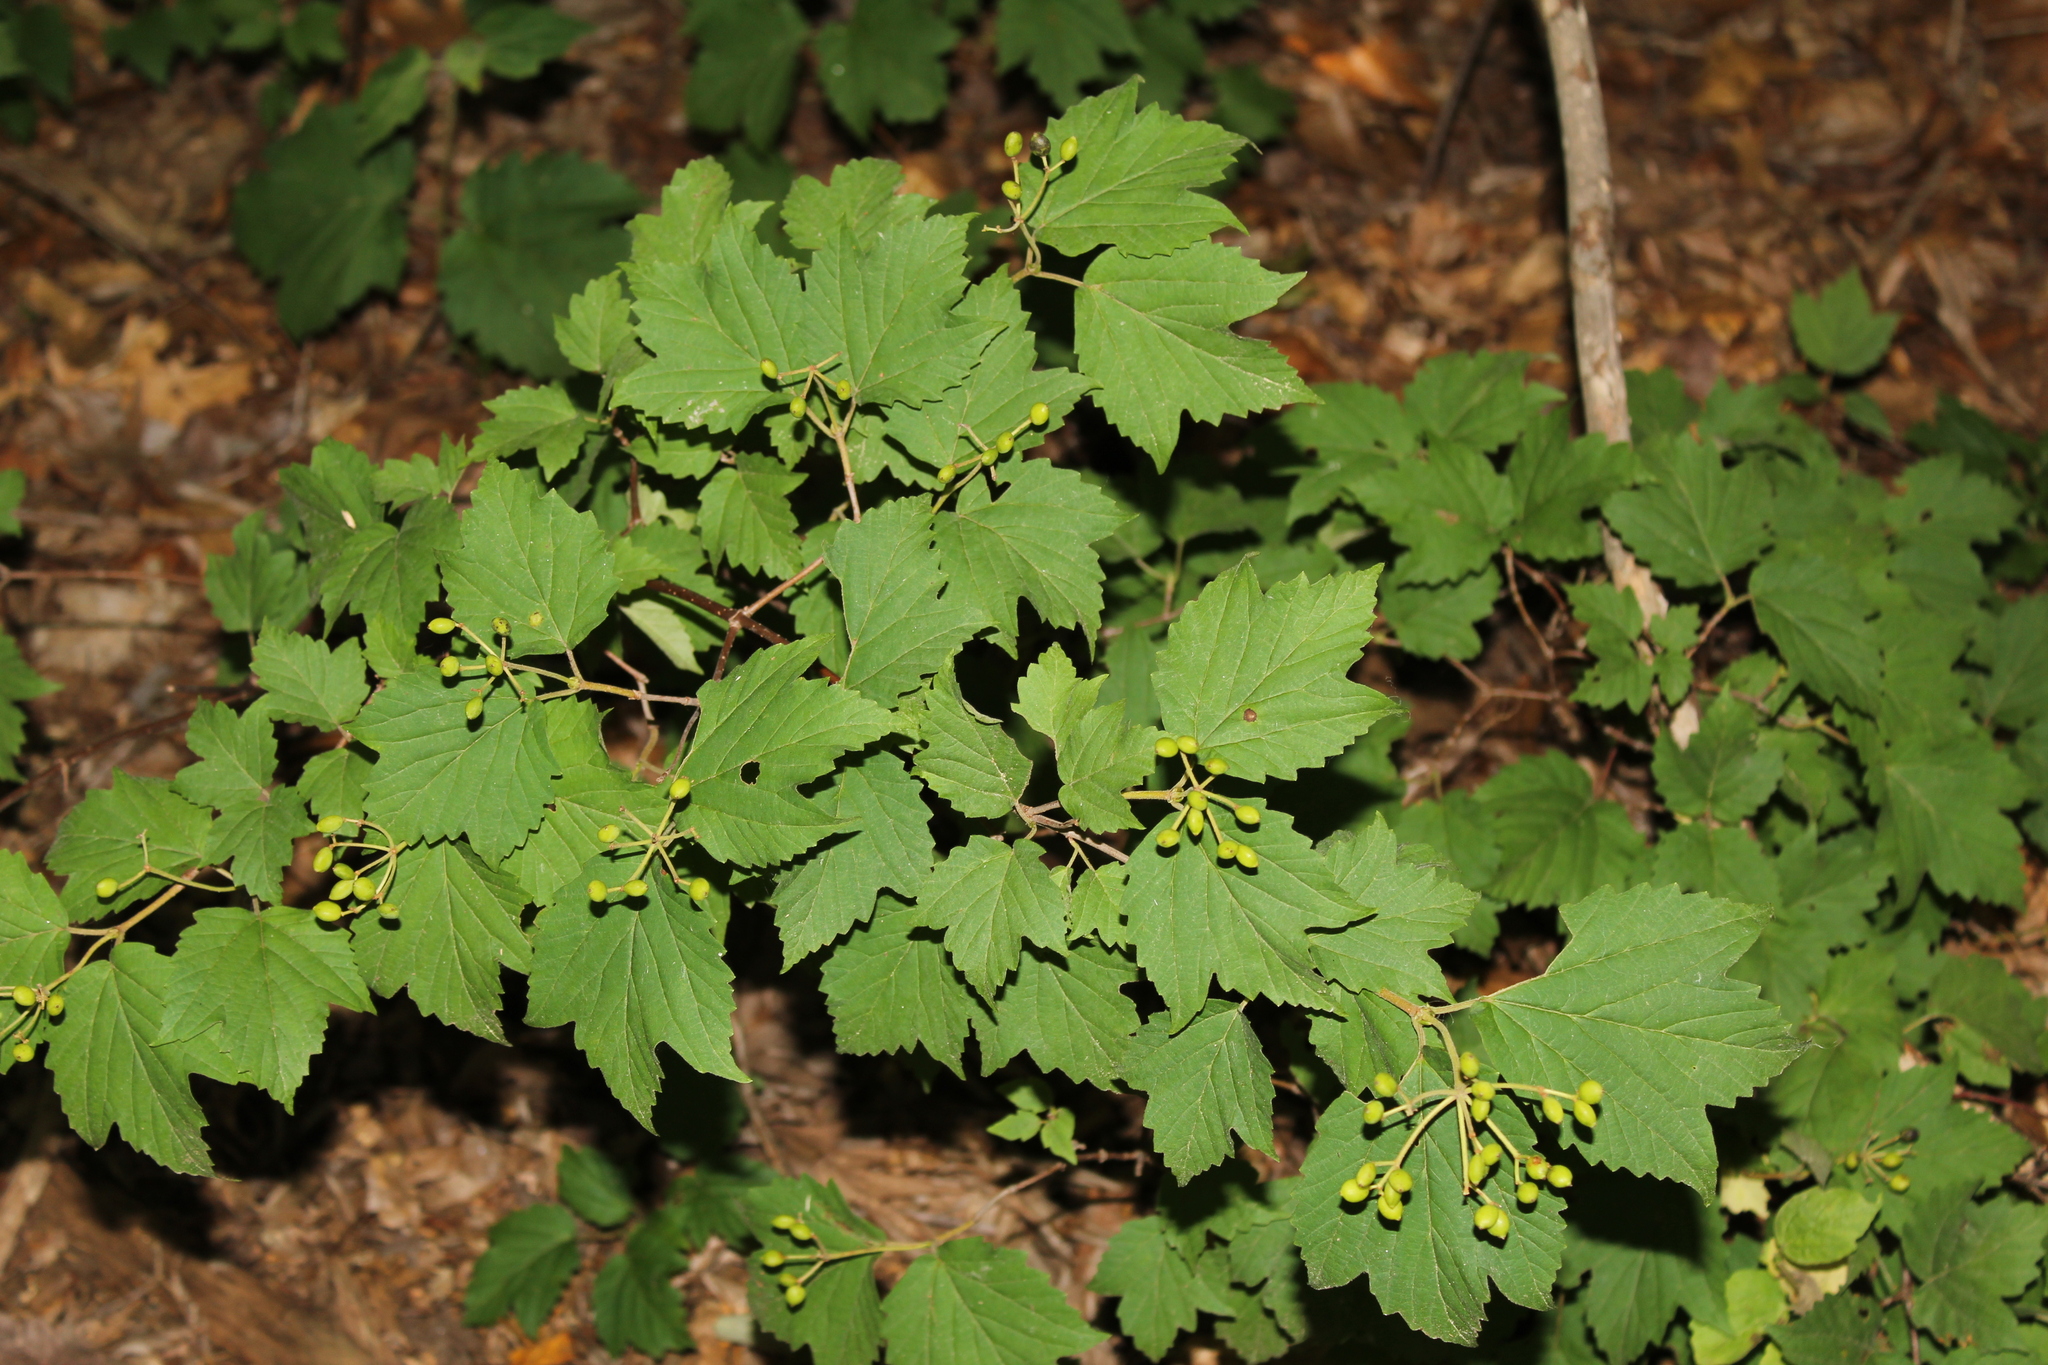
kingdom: Plantae
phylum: Tracheophyta
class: Magnoliopsida
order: Dipsacales
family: Viburnaceae
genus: Viburnum
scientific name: Viburnum acerifolium
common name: Dockmackie
